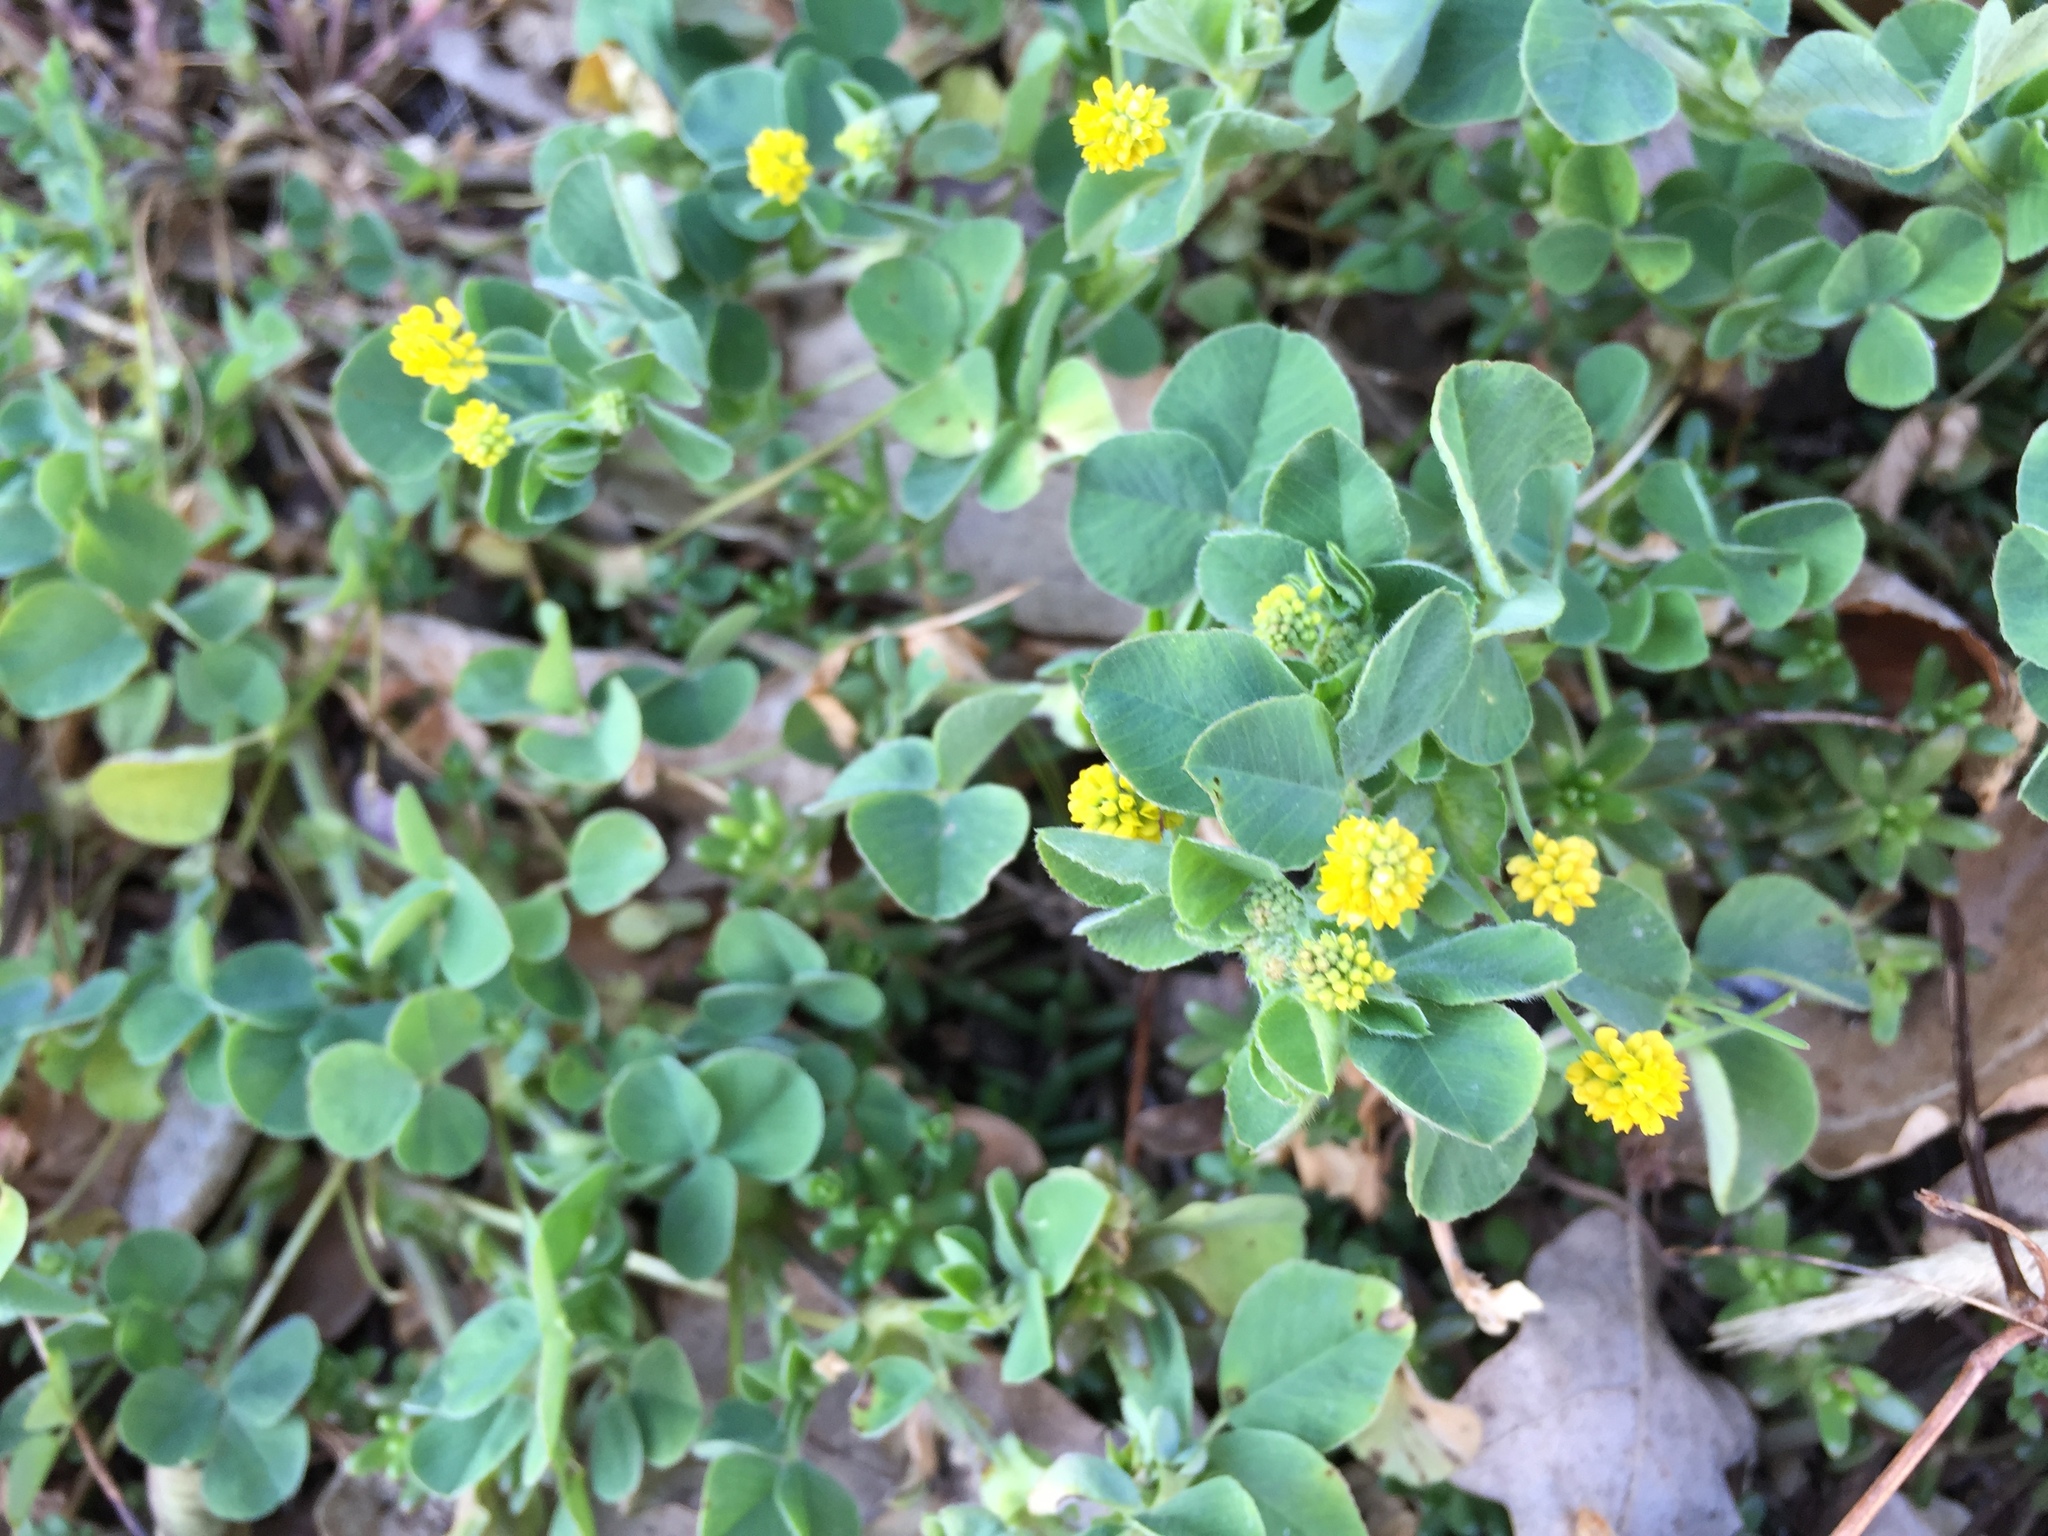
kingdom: Plantae
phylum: Tracheophyta
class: Magnoliopsida
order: Fabales
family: Fabaceae
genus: Medicago
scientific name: Medicago lupulina
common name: Black medick
